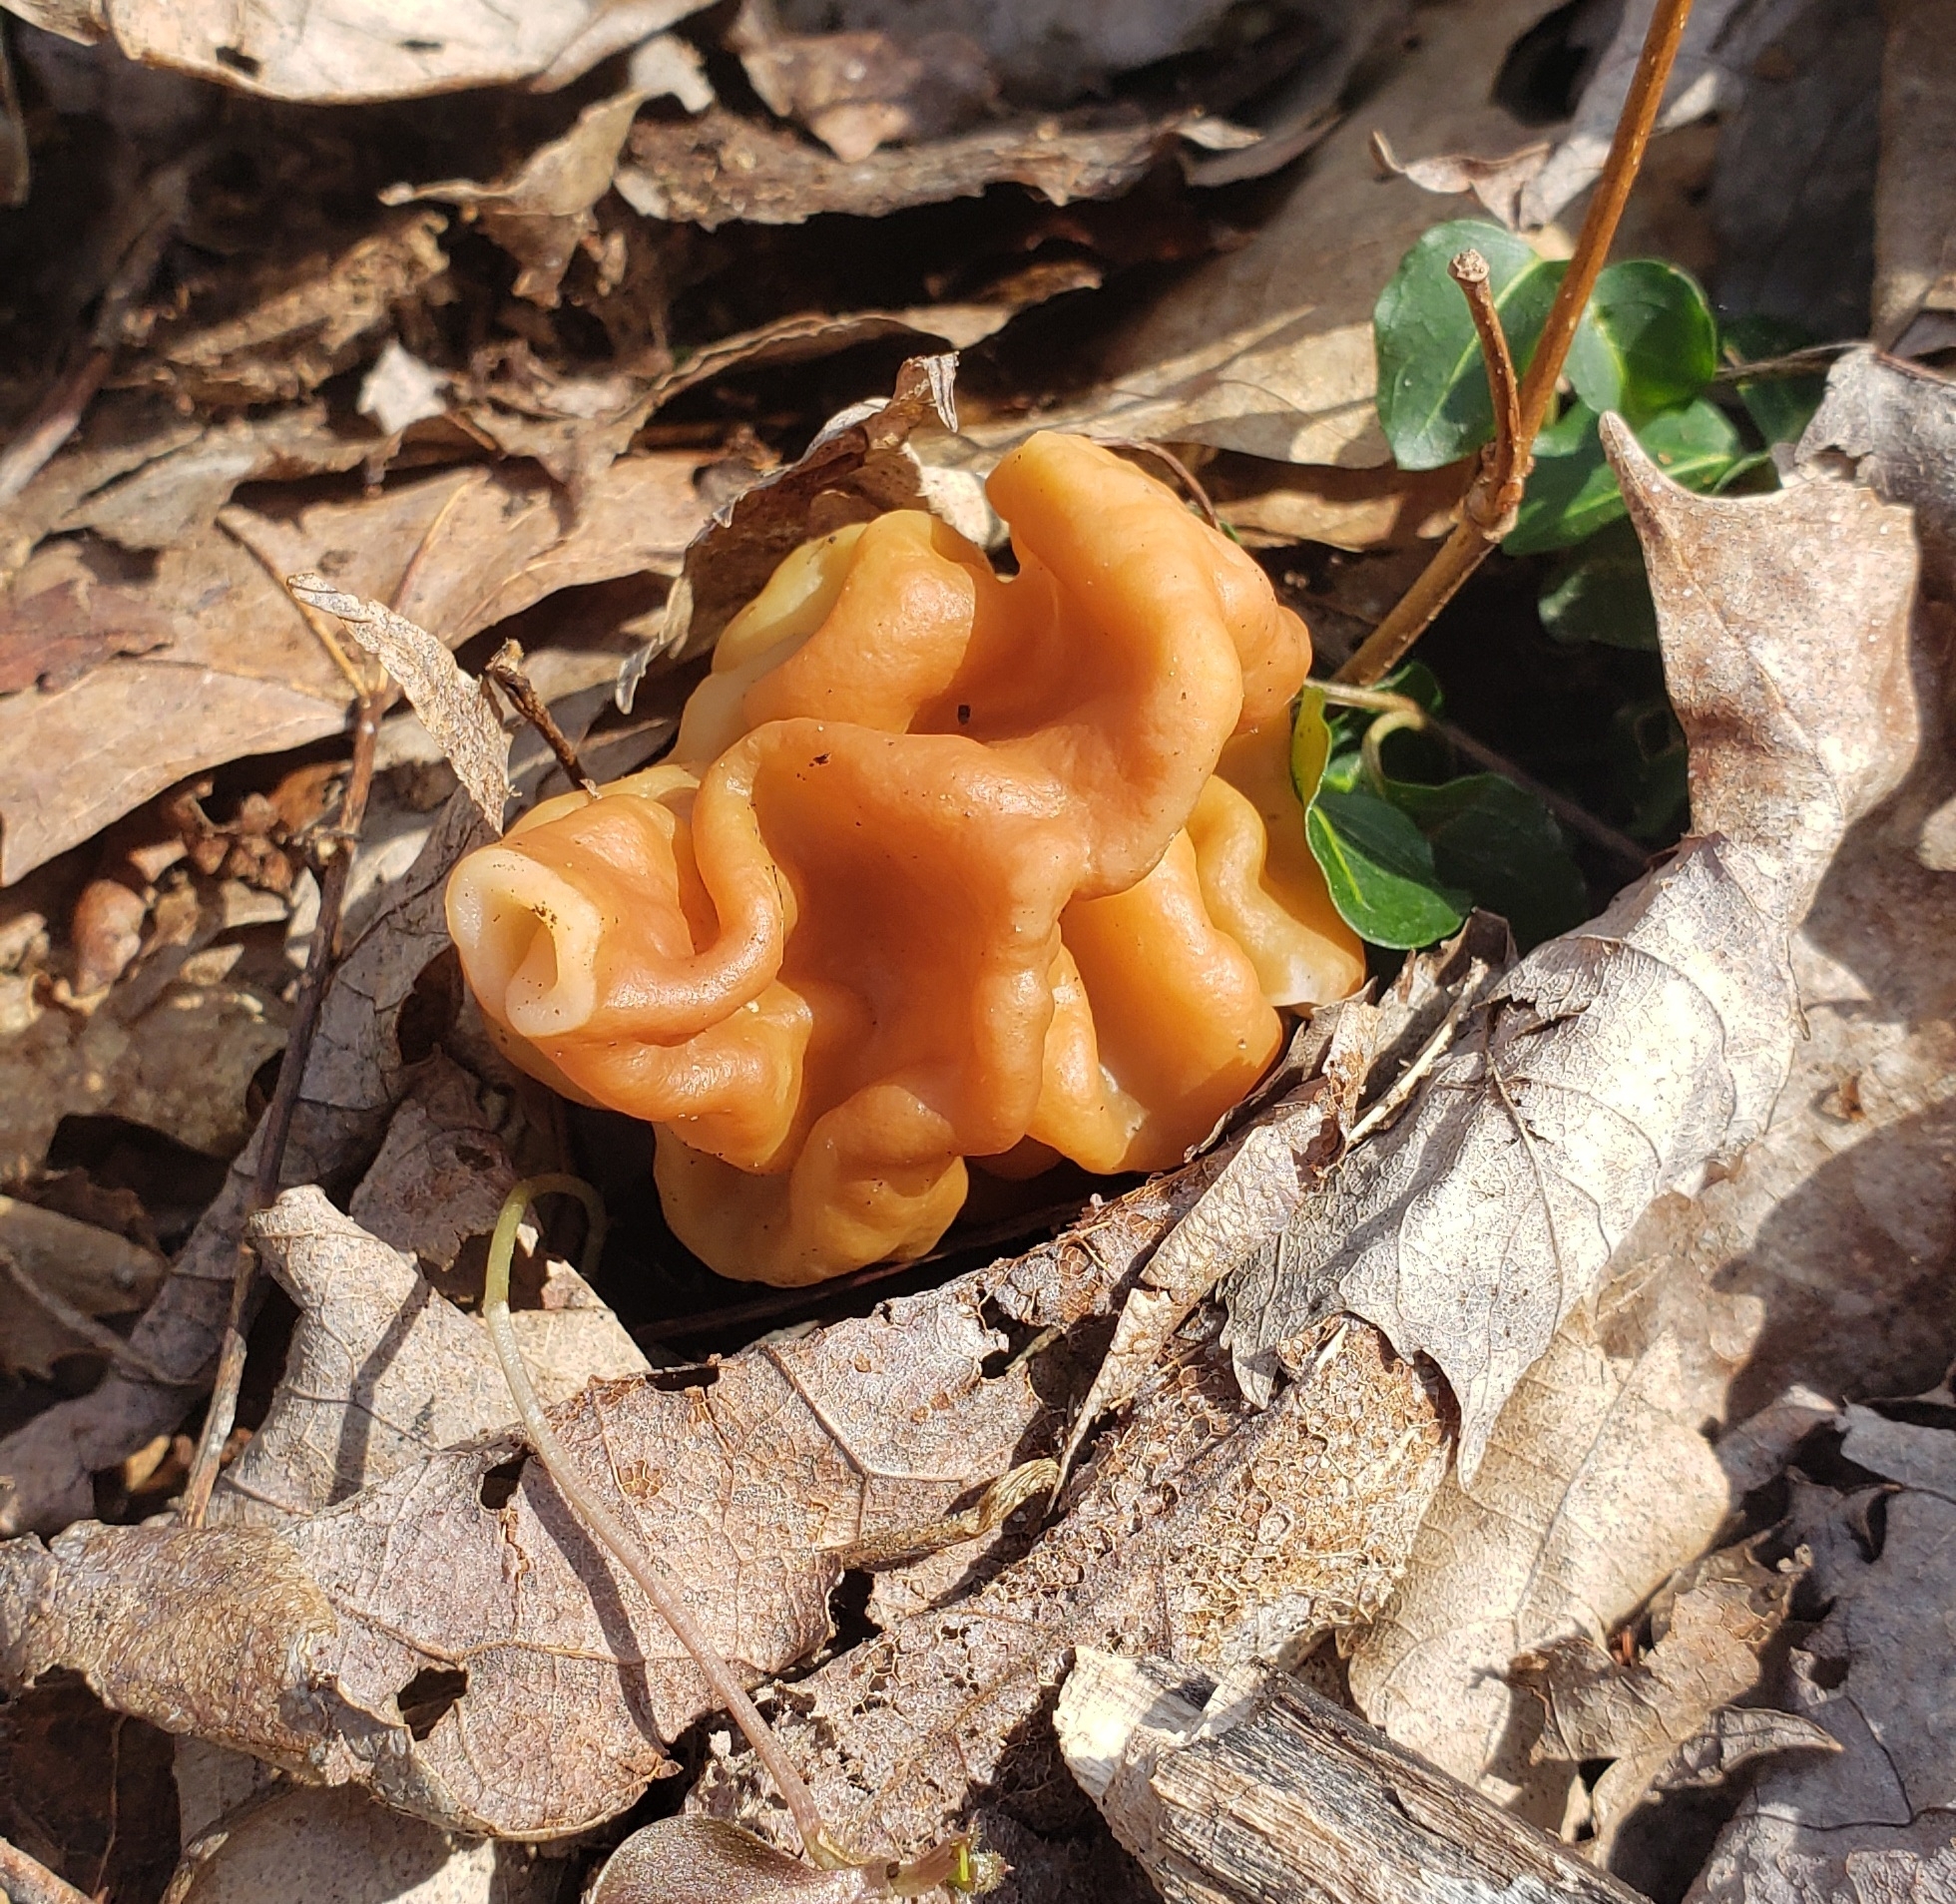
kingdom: Fungi
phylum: Ascomycota
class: Pezizomycetes
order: Pezizales
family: Discinaceae
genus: Gyromitra
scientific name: Gyromitra korfii
